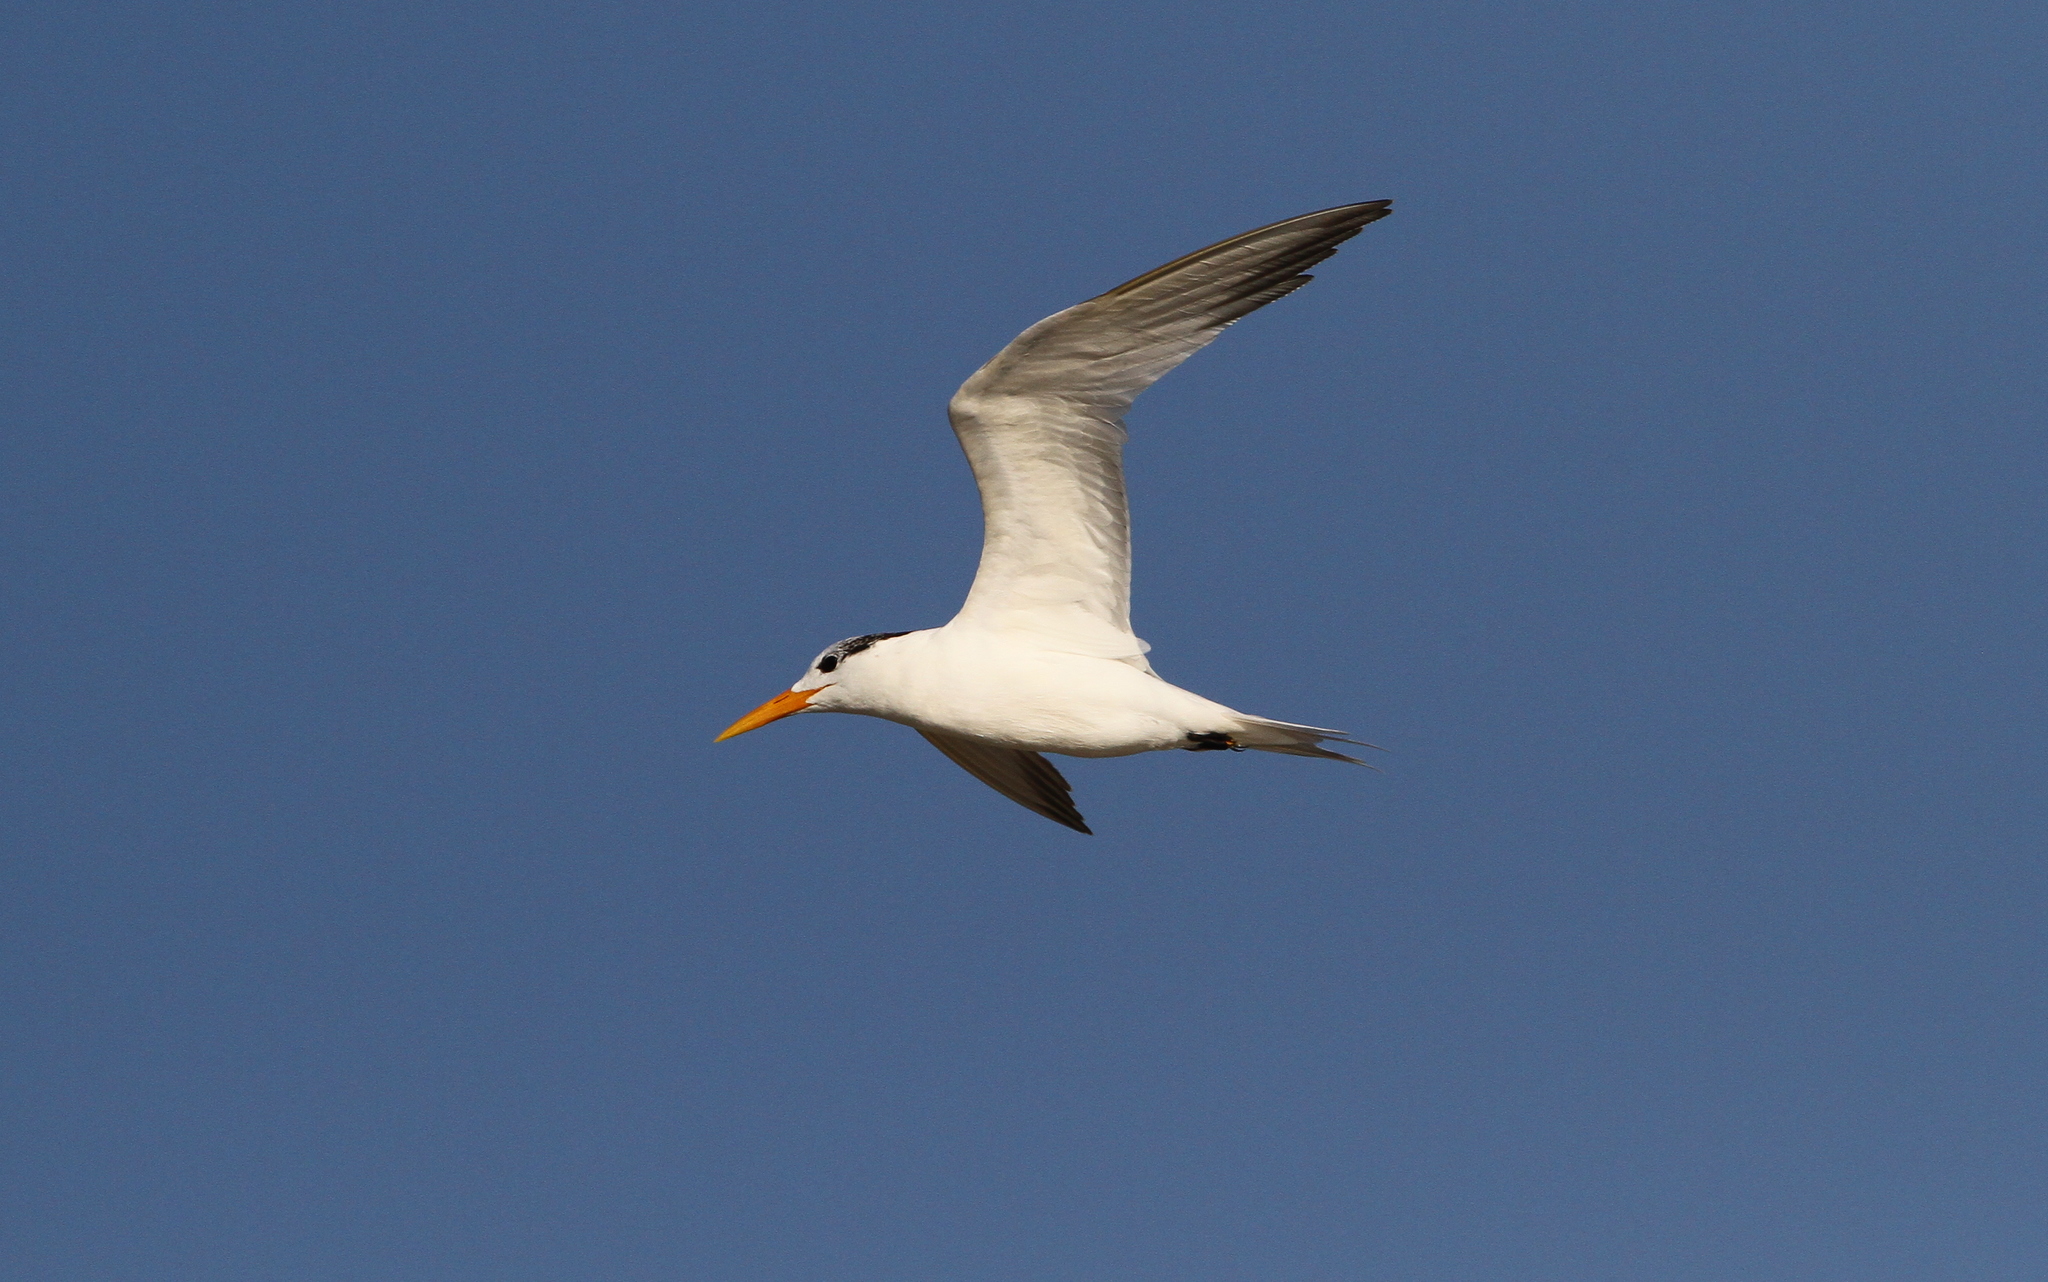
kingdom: Animalia
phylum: Chordata
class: Aves
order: Charadriiformes
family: Laridae
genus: Thalasseus
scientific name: Thalasseus albididorsalis
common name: West african crested tern
